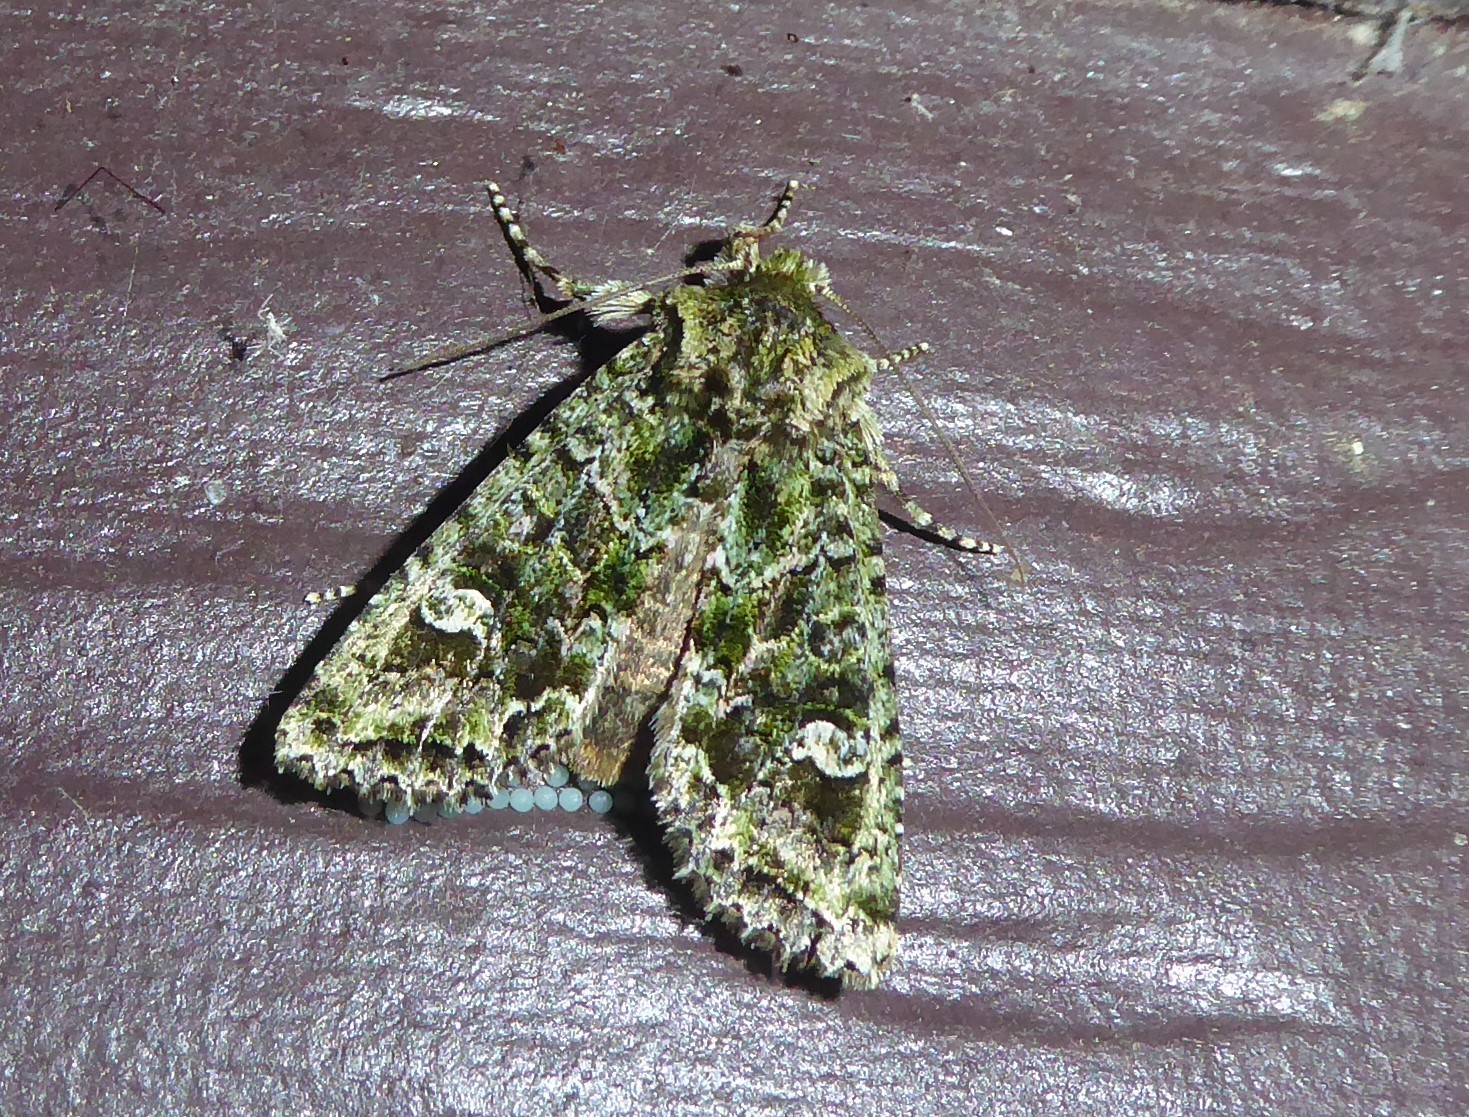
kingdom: Animalia
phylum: Arthropoda
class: Insecta
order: Lepidoptera
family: Noctuidae
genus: Ichneutica
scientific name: Ichneutica
